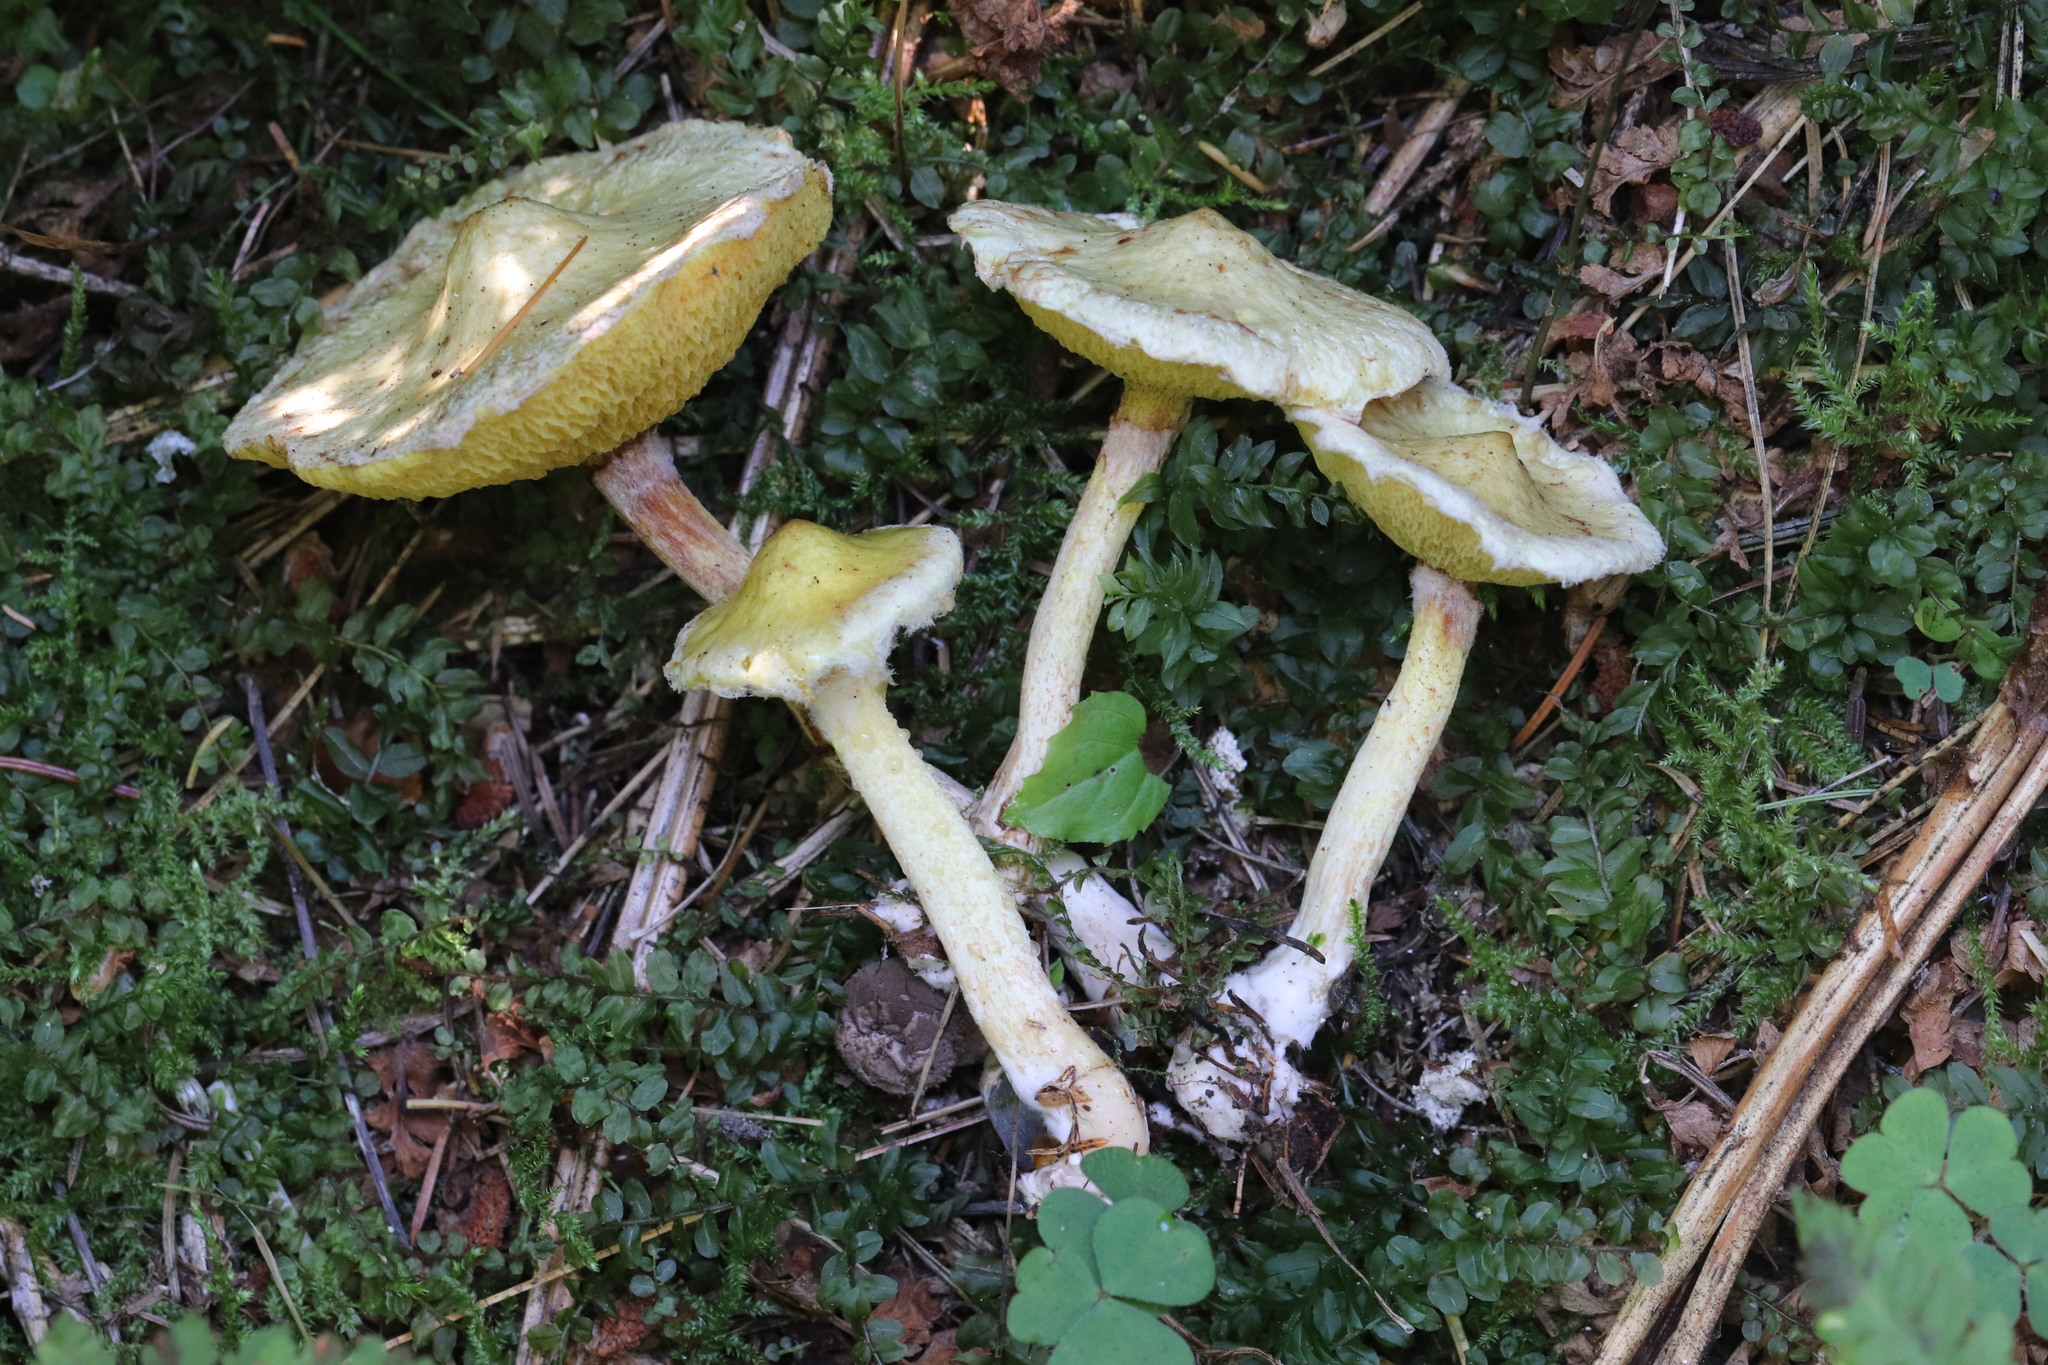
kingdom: Fungi
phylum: Basidiomycota
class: Agaricomycetes
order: Boletales
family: Suillaceae
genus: Suillus
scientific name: Suillus americanus
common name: Chicken fat mushroom
